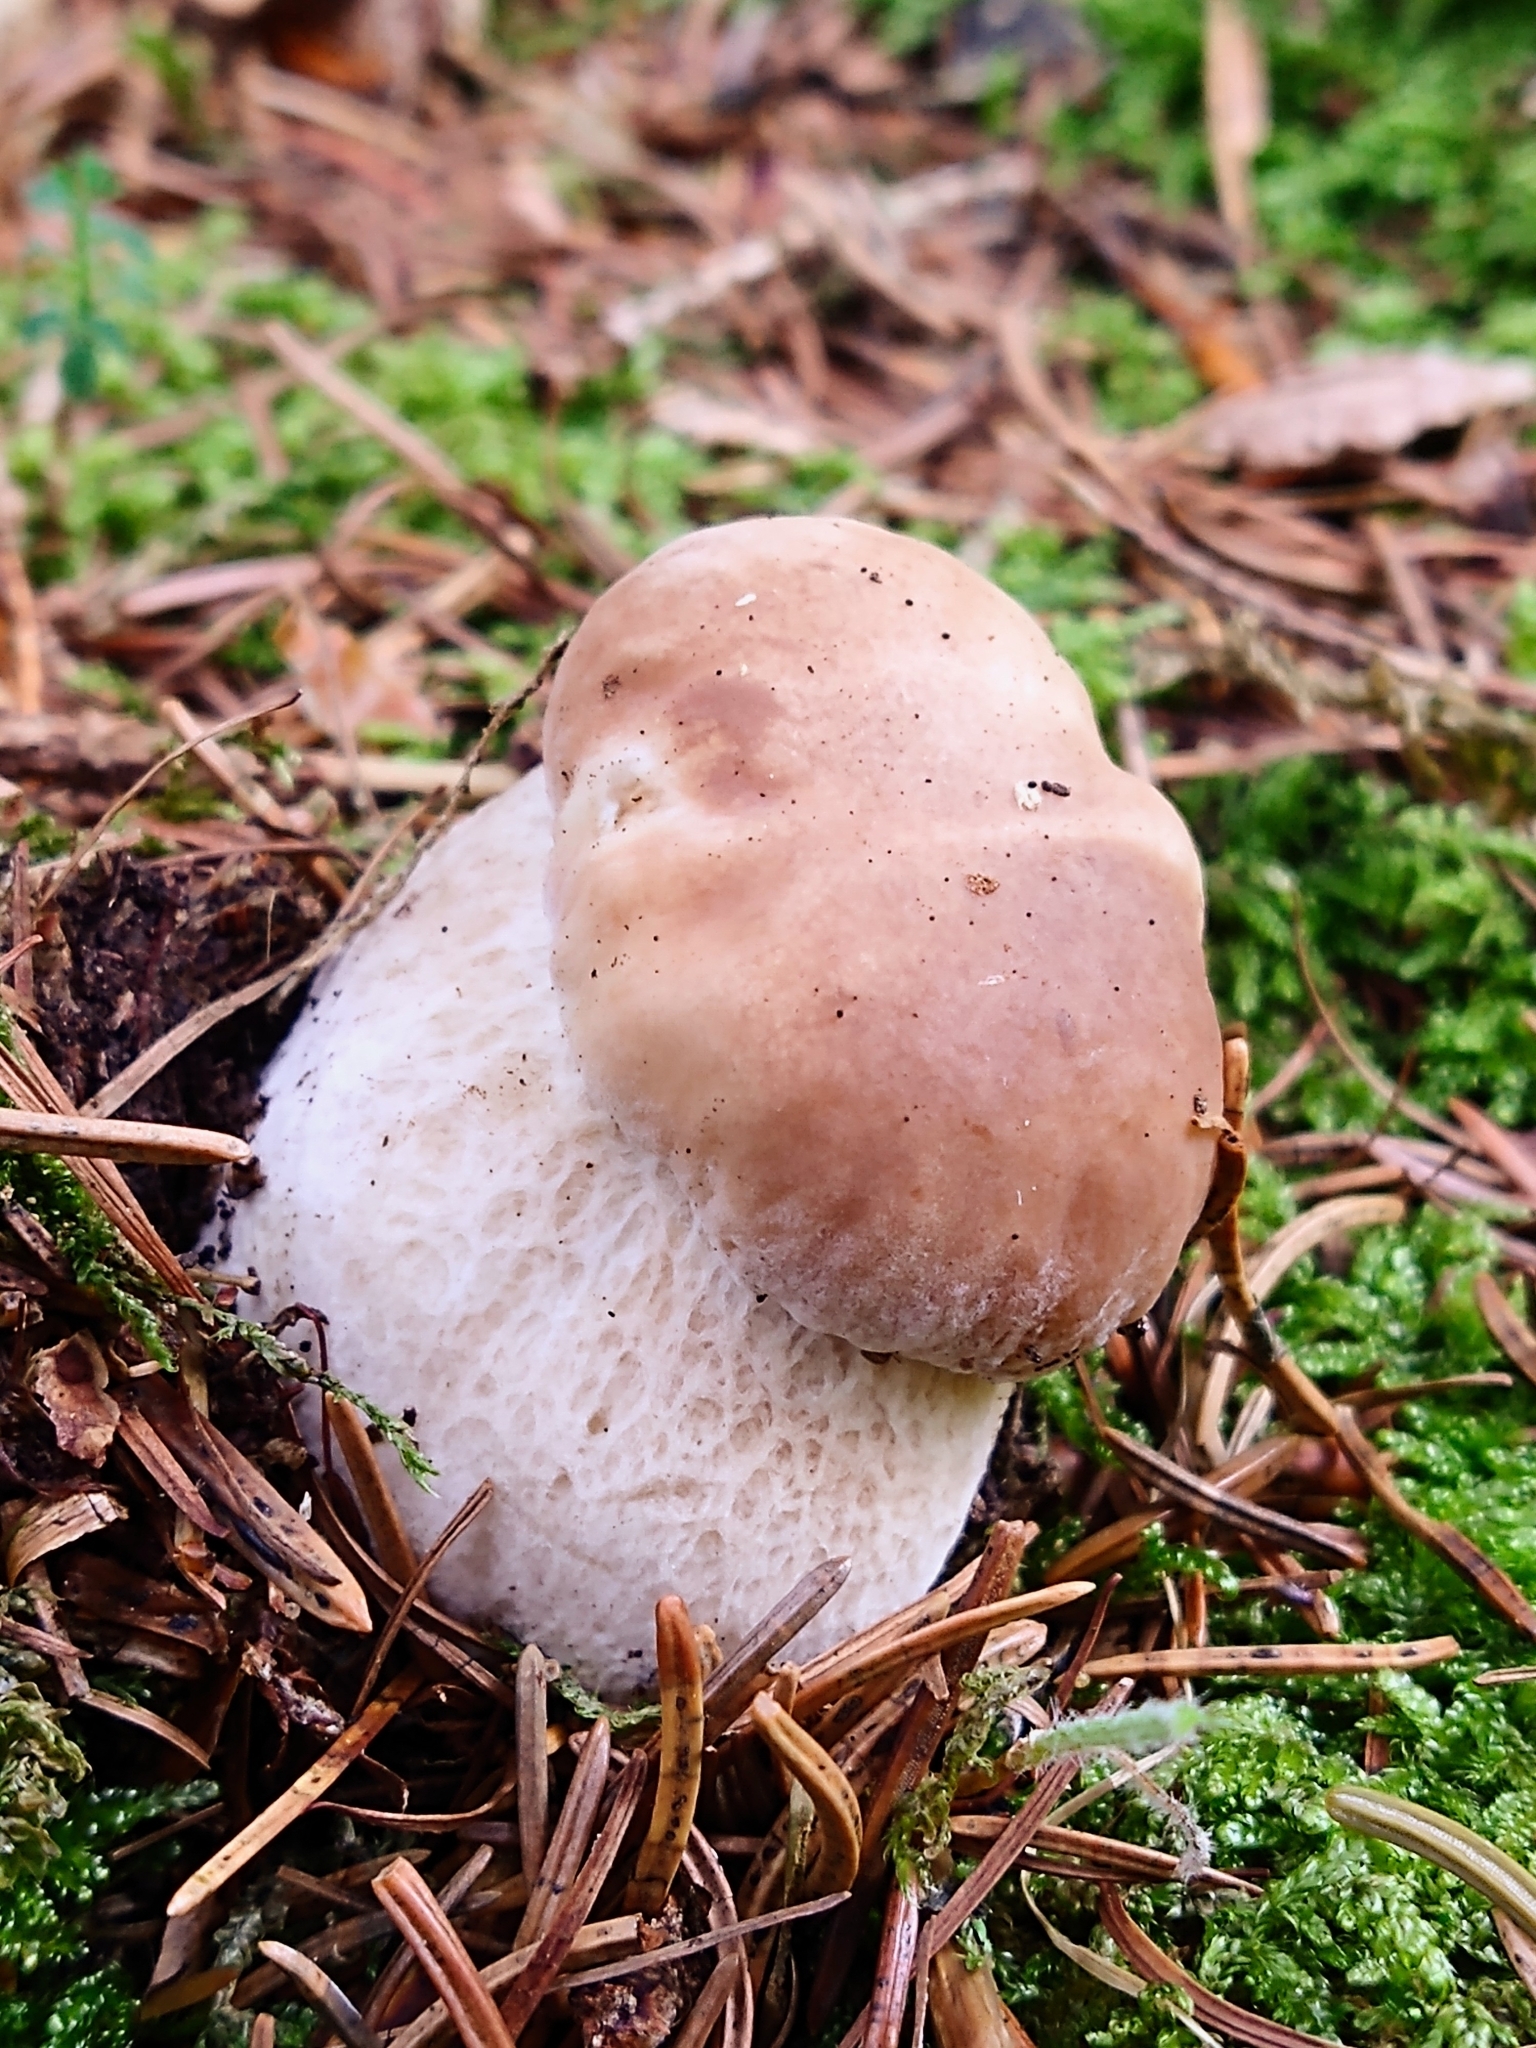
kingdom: Fungi
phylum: Basidiomycota
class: Agaricomycetes
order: Boletales
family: Boletaceae
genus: Boletus
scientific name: Boletus edulis
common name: Cep
